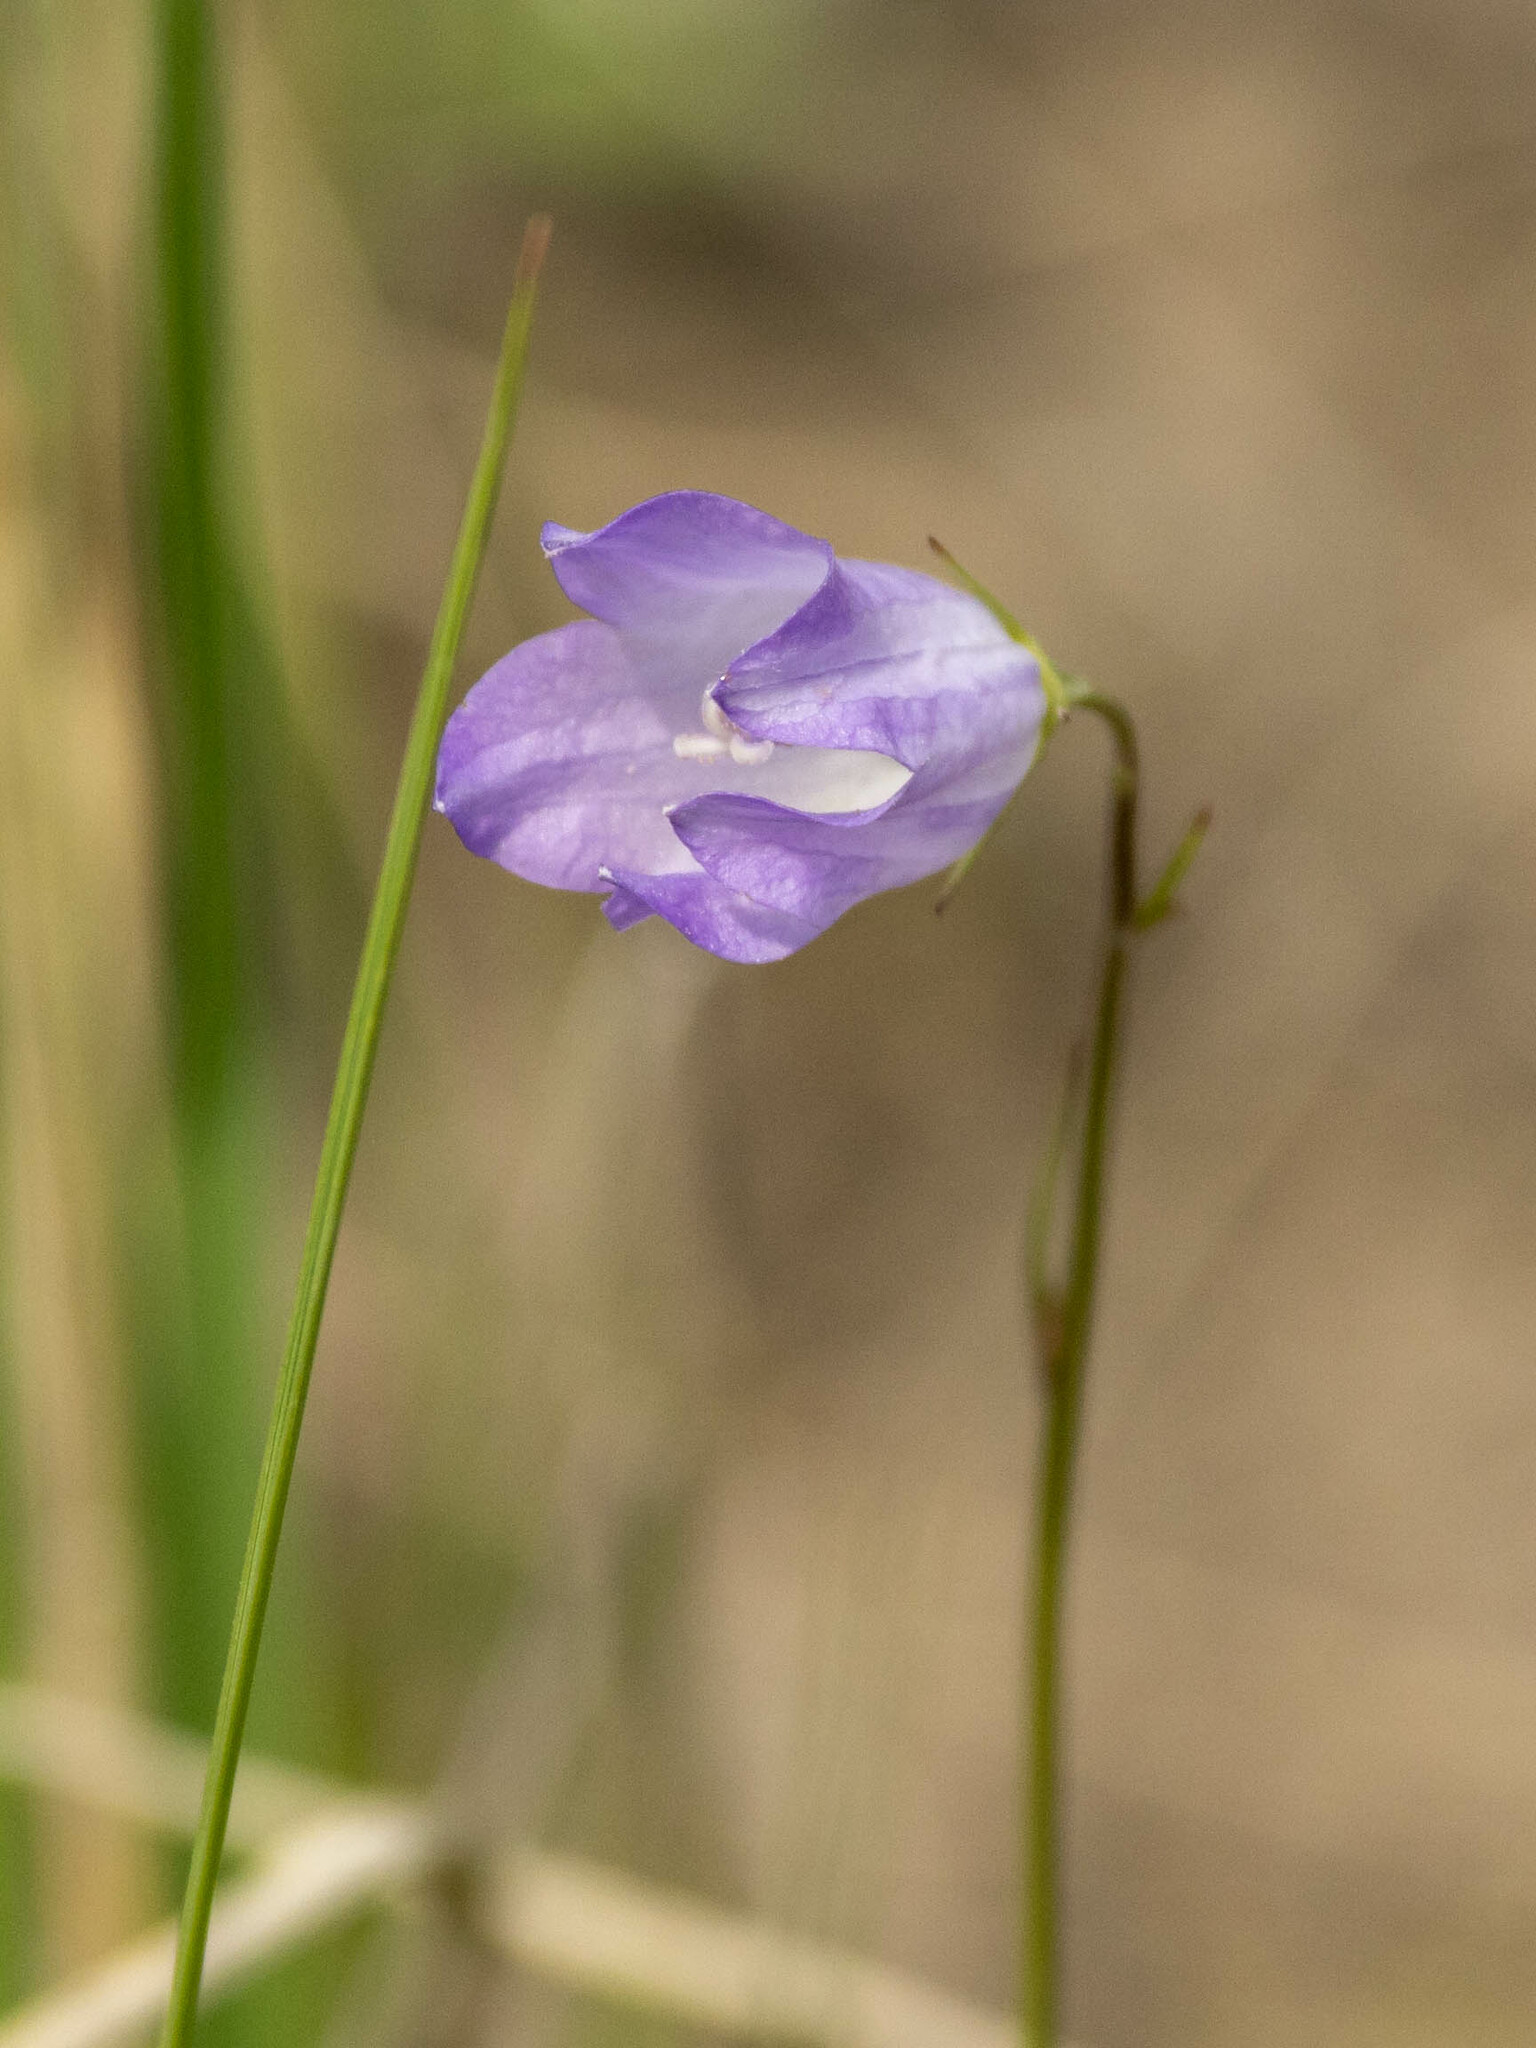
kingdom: Plantae
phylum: Tracheophyta
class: Magnoliopsida
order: Asterales
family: Campanulaceae
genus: Campanula
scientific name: Campanula alaskana
